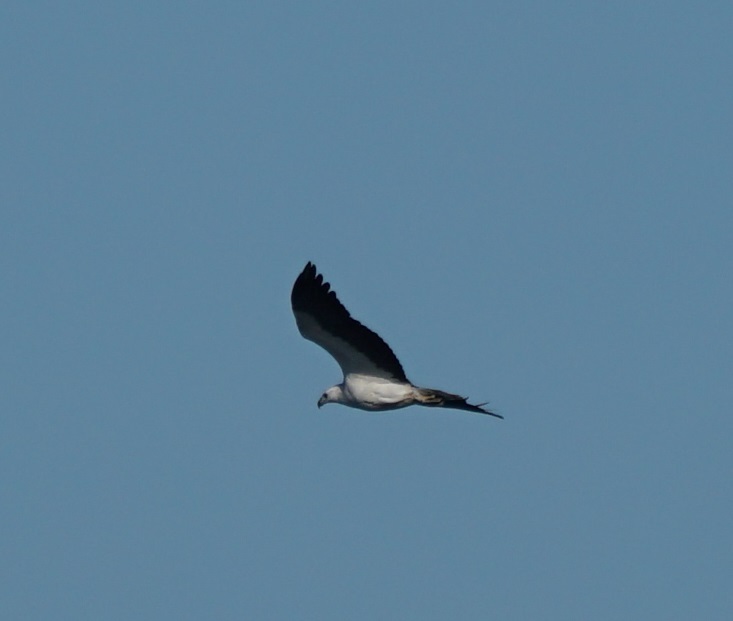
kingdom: Animalia
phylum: Chordata
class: Aves
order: Accipitriformes
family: Accipitridae
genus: Haliaeetus
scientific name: Haliaeetus leucogaster
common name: White-bellied sea eagle
